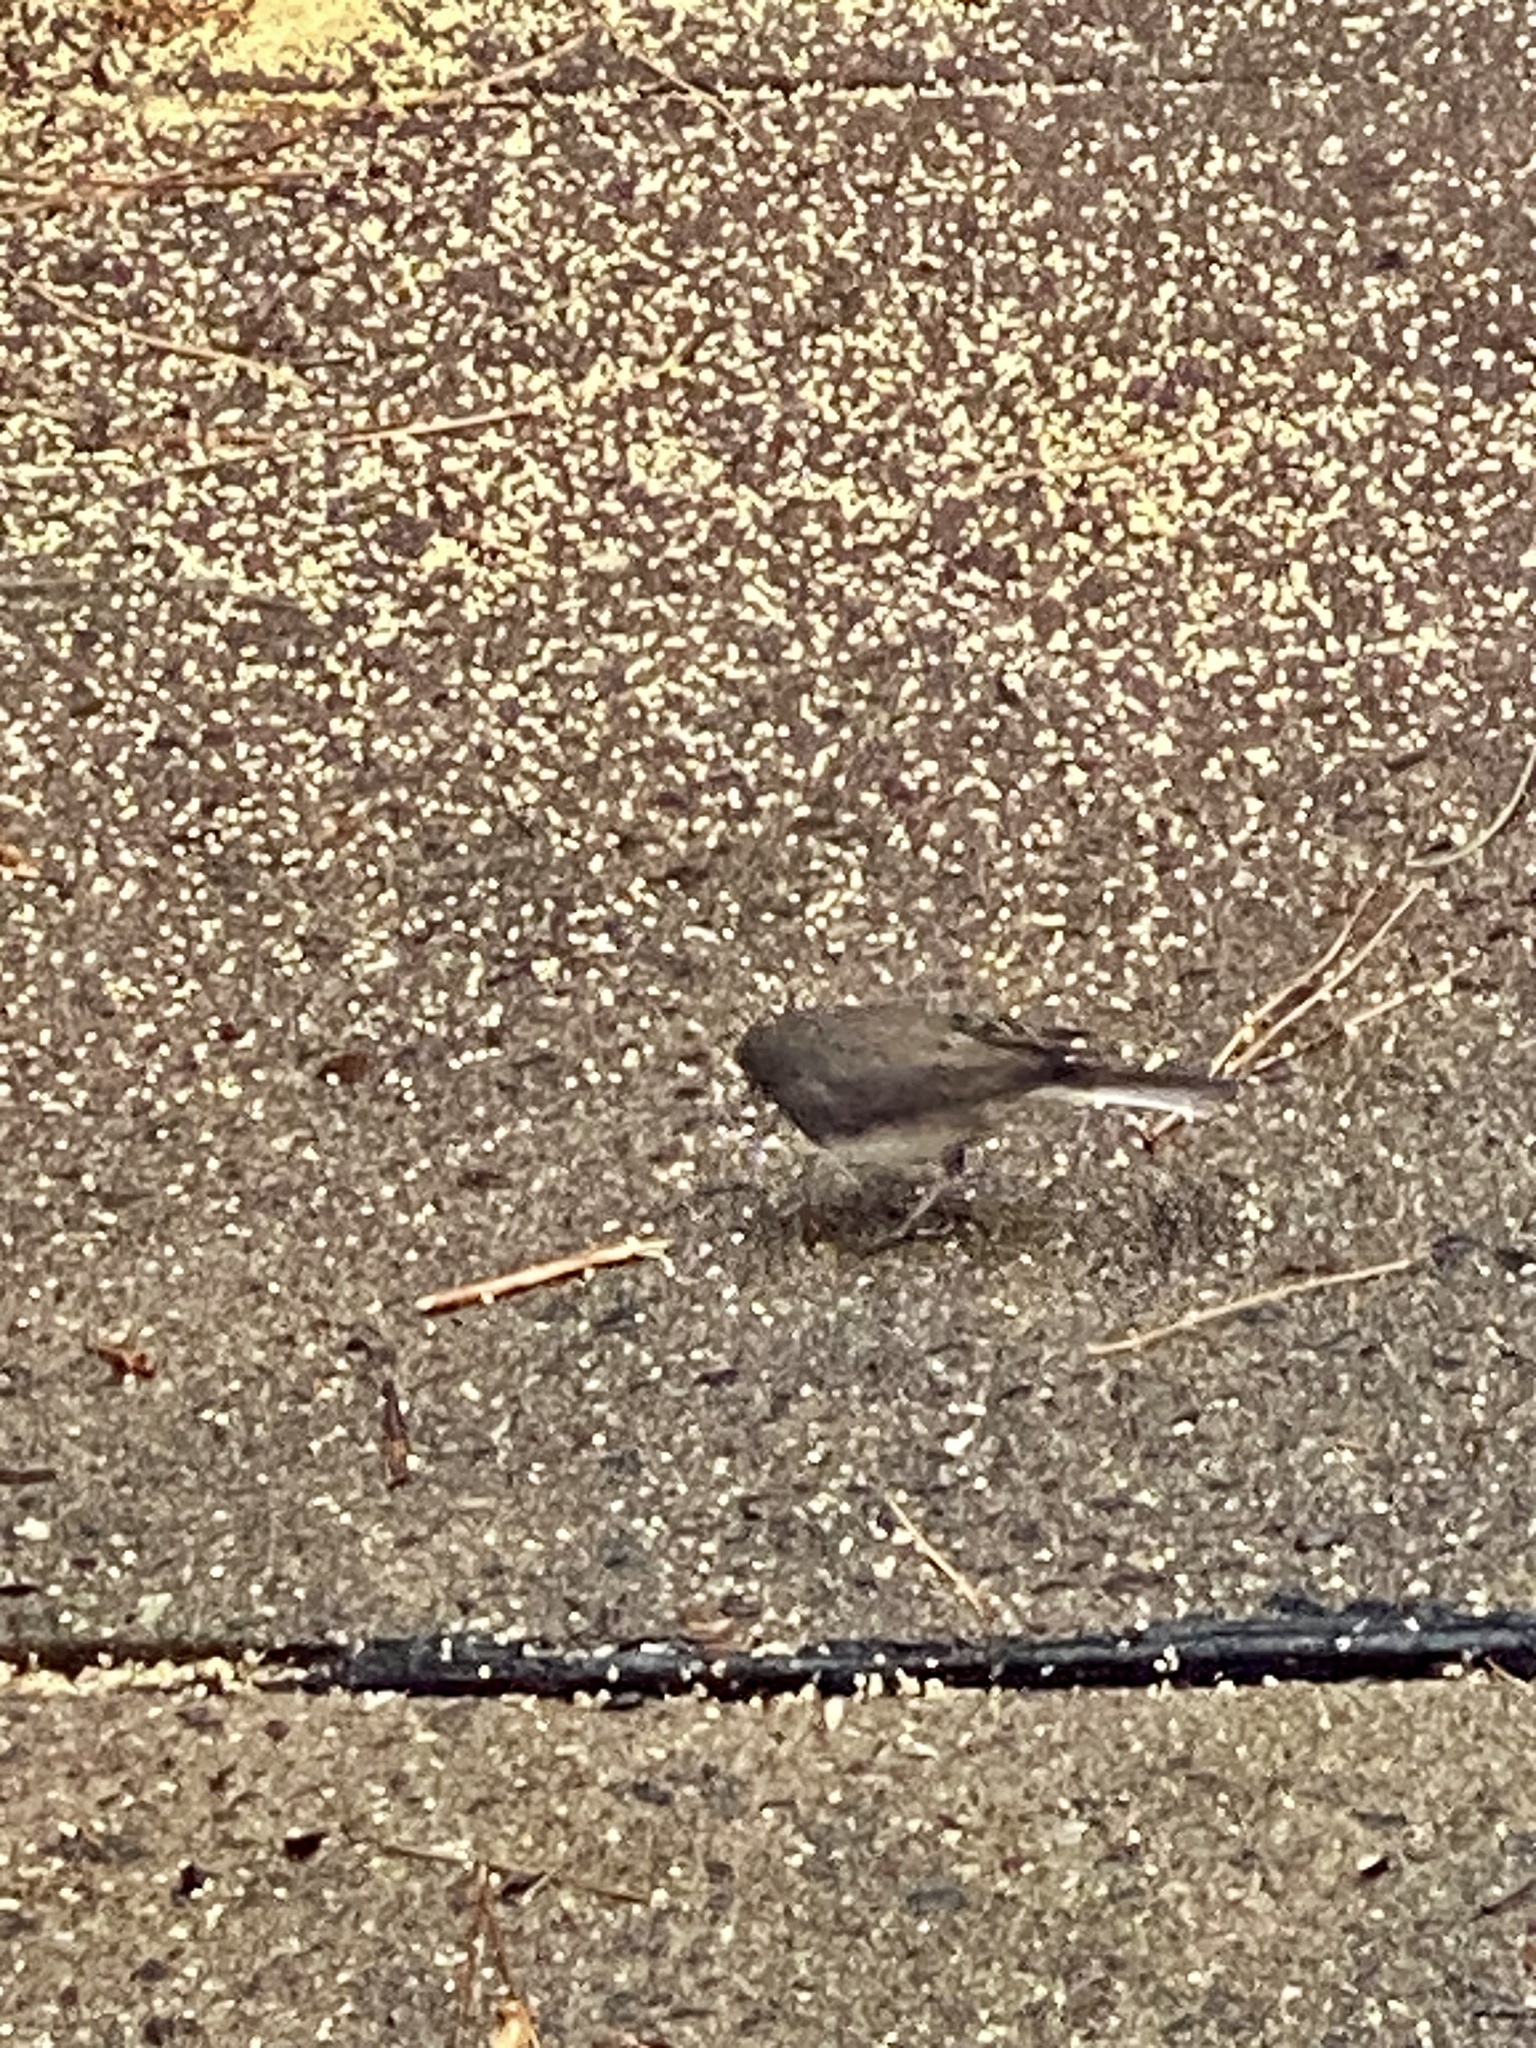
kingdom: Animalia
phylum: Chordata
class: Aves
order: Passeriformes
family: Passerellidae
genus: Junco
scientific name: Junco hyemalis
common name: Dark-eyed junco
